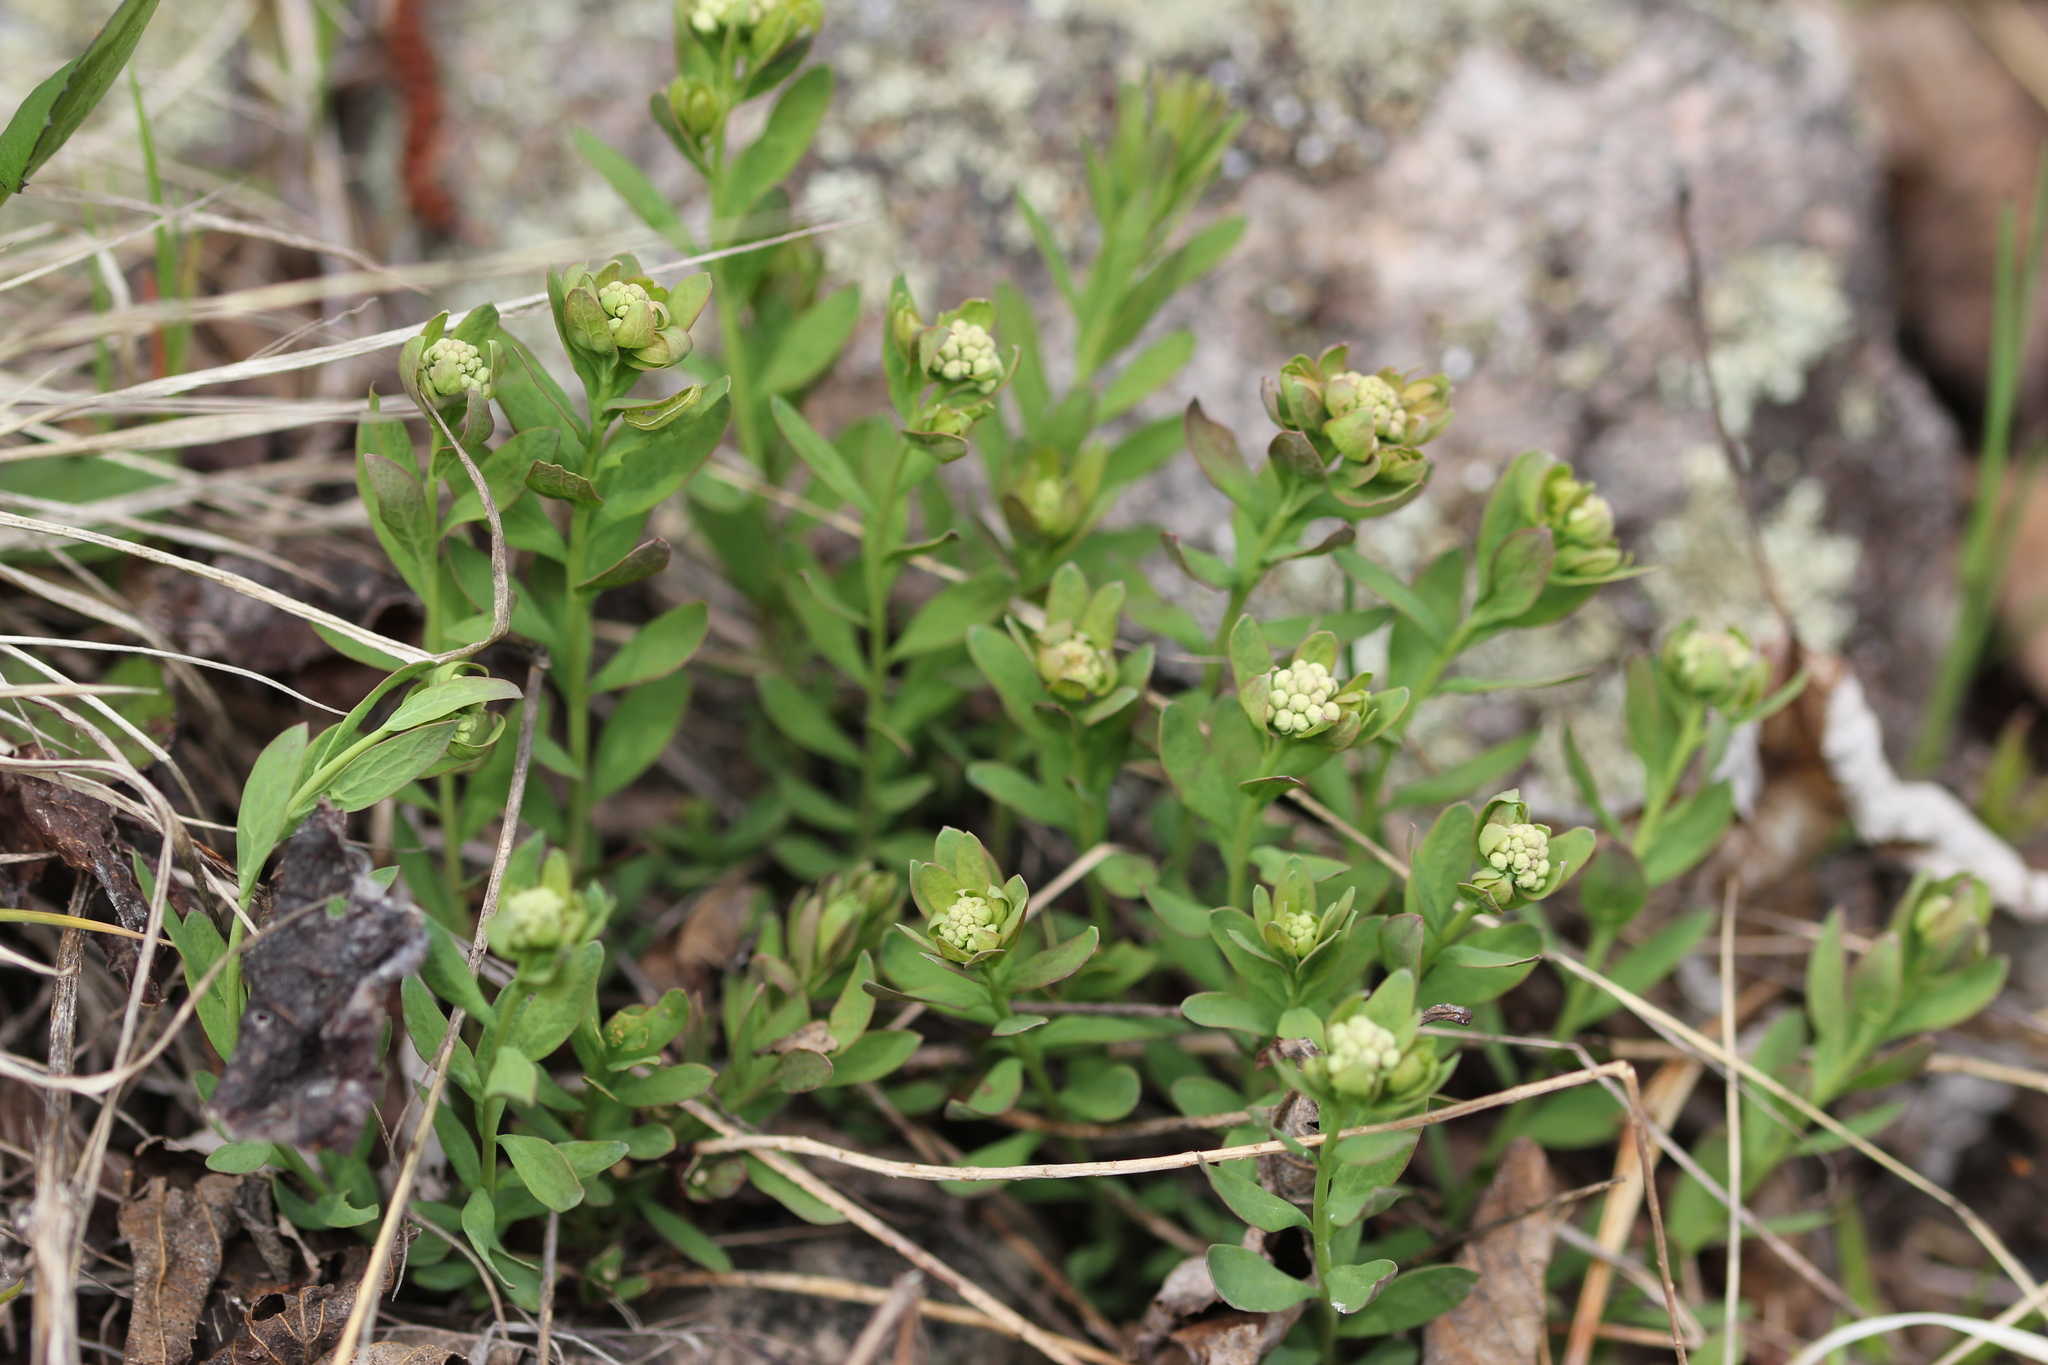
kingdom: Plantae
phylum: Tracheophyta
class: Magnoliopsida
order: Santalales
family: Comandraceae
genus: Comandra
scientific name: Comandra umbellata
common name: Bastard toadflax
